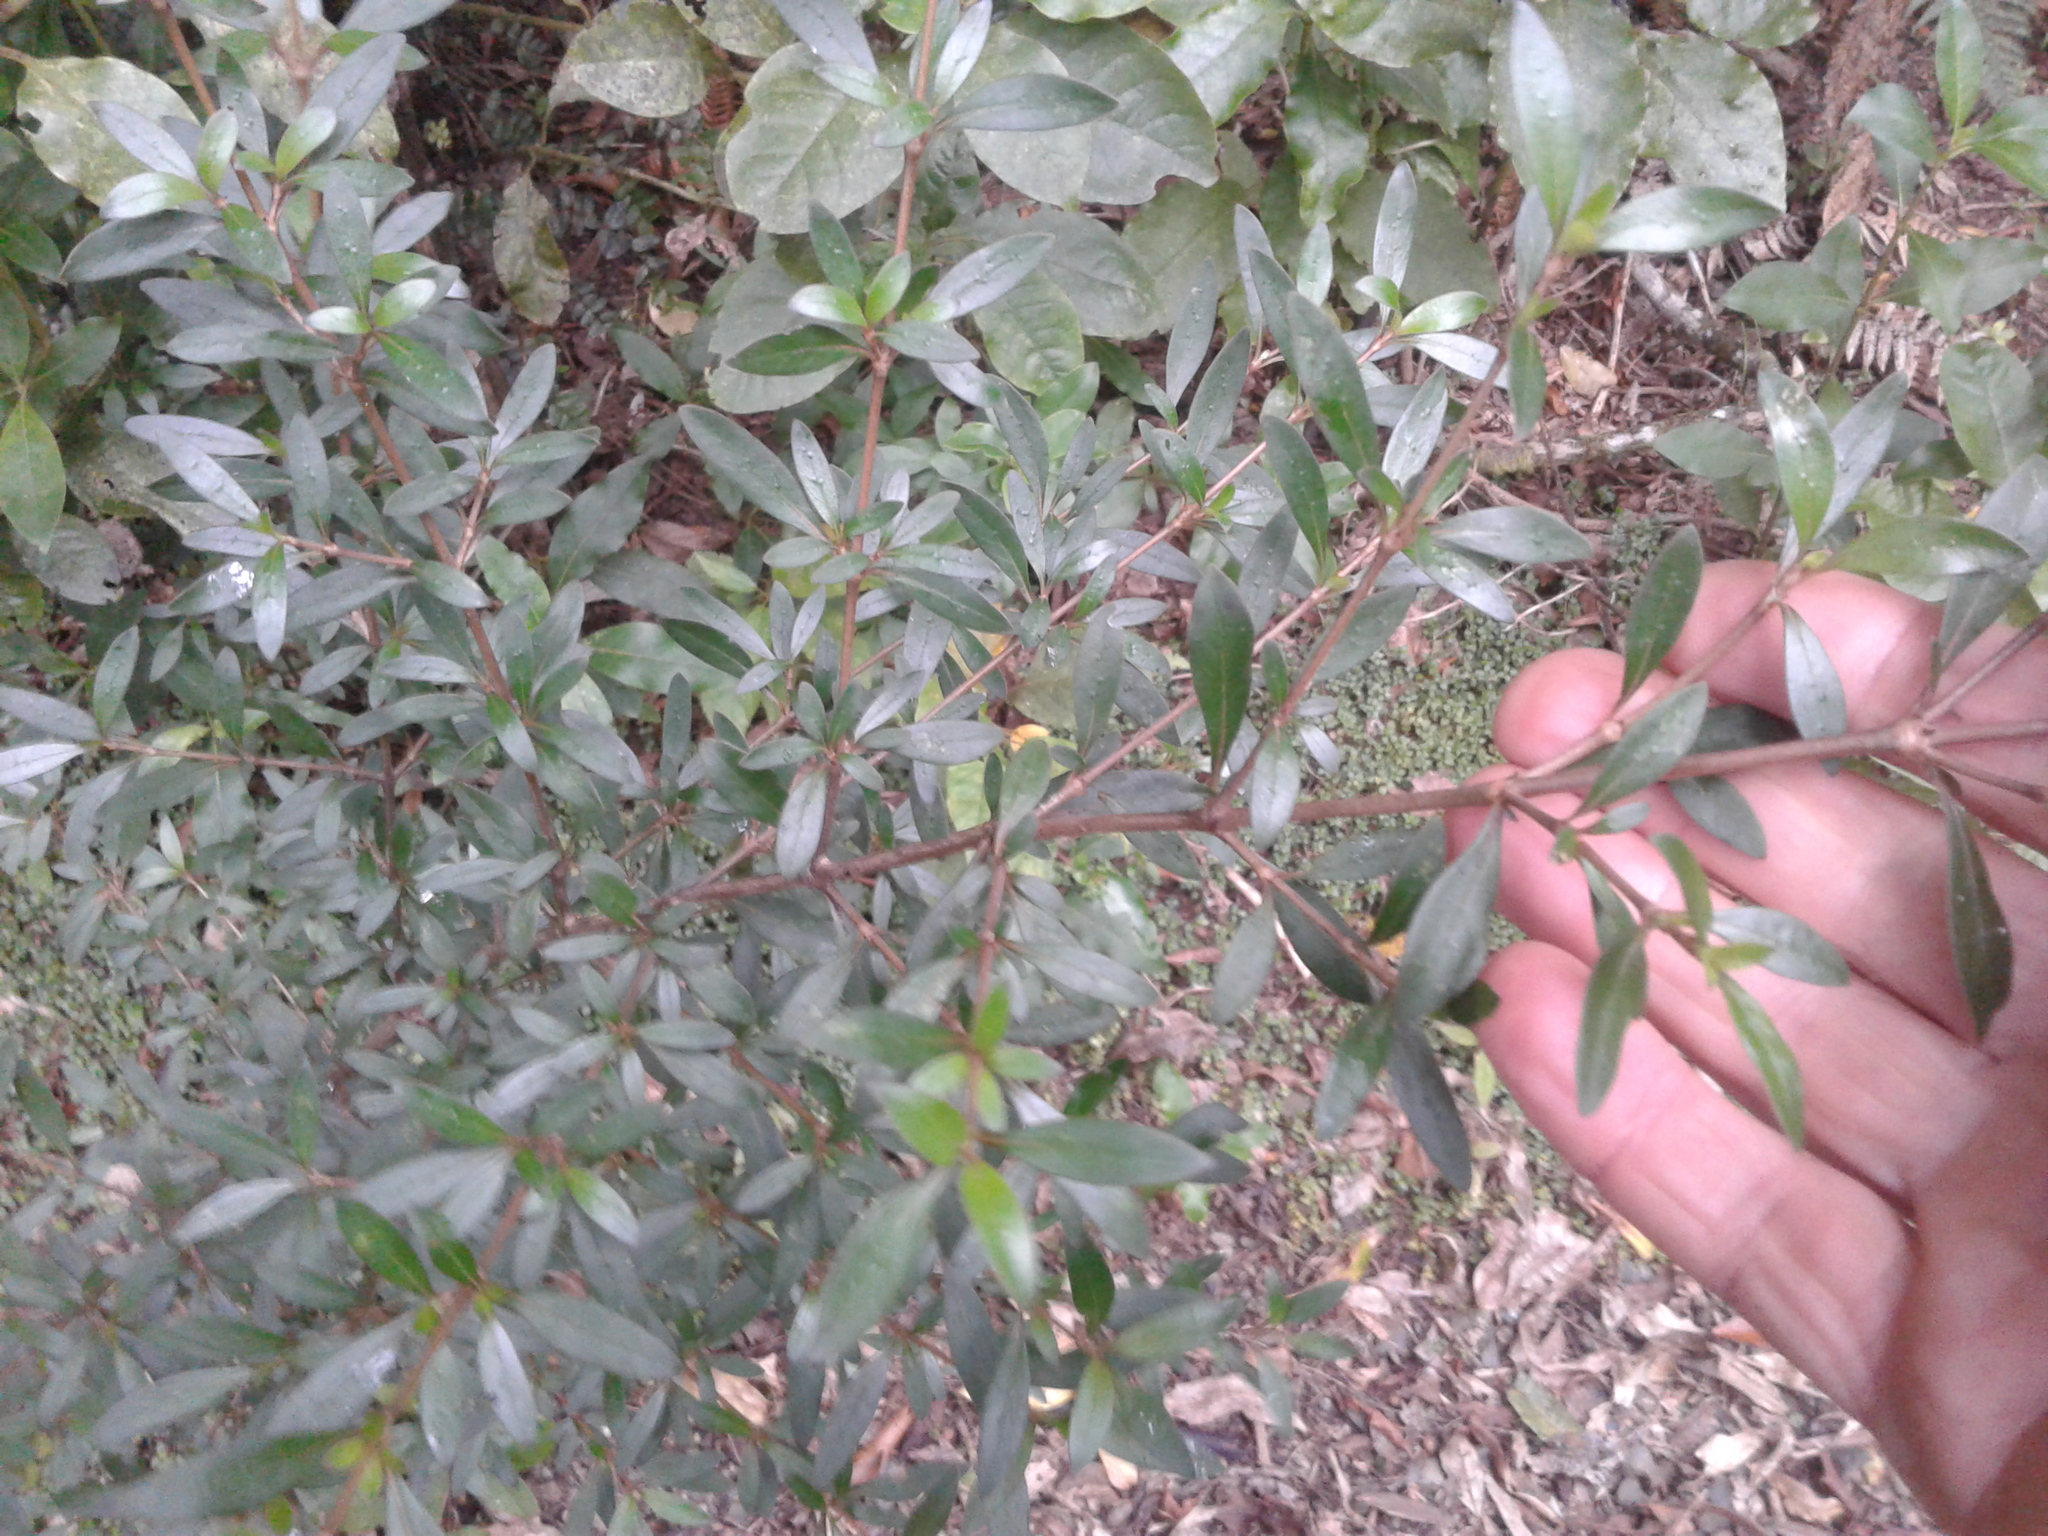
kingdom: Plantae
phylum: Tracheophyta
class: Magnoliopsida
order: Gentianales
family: Rubiaceae
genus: Coprosma
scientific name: Coprosma cunninghamii
